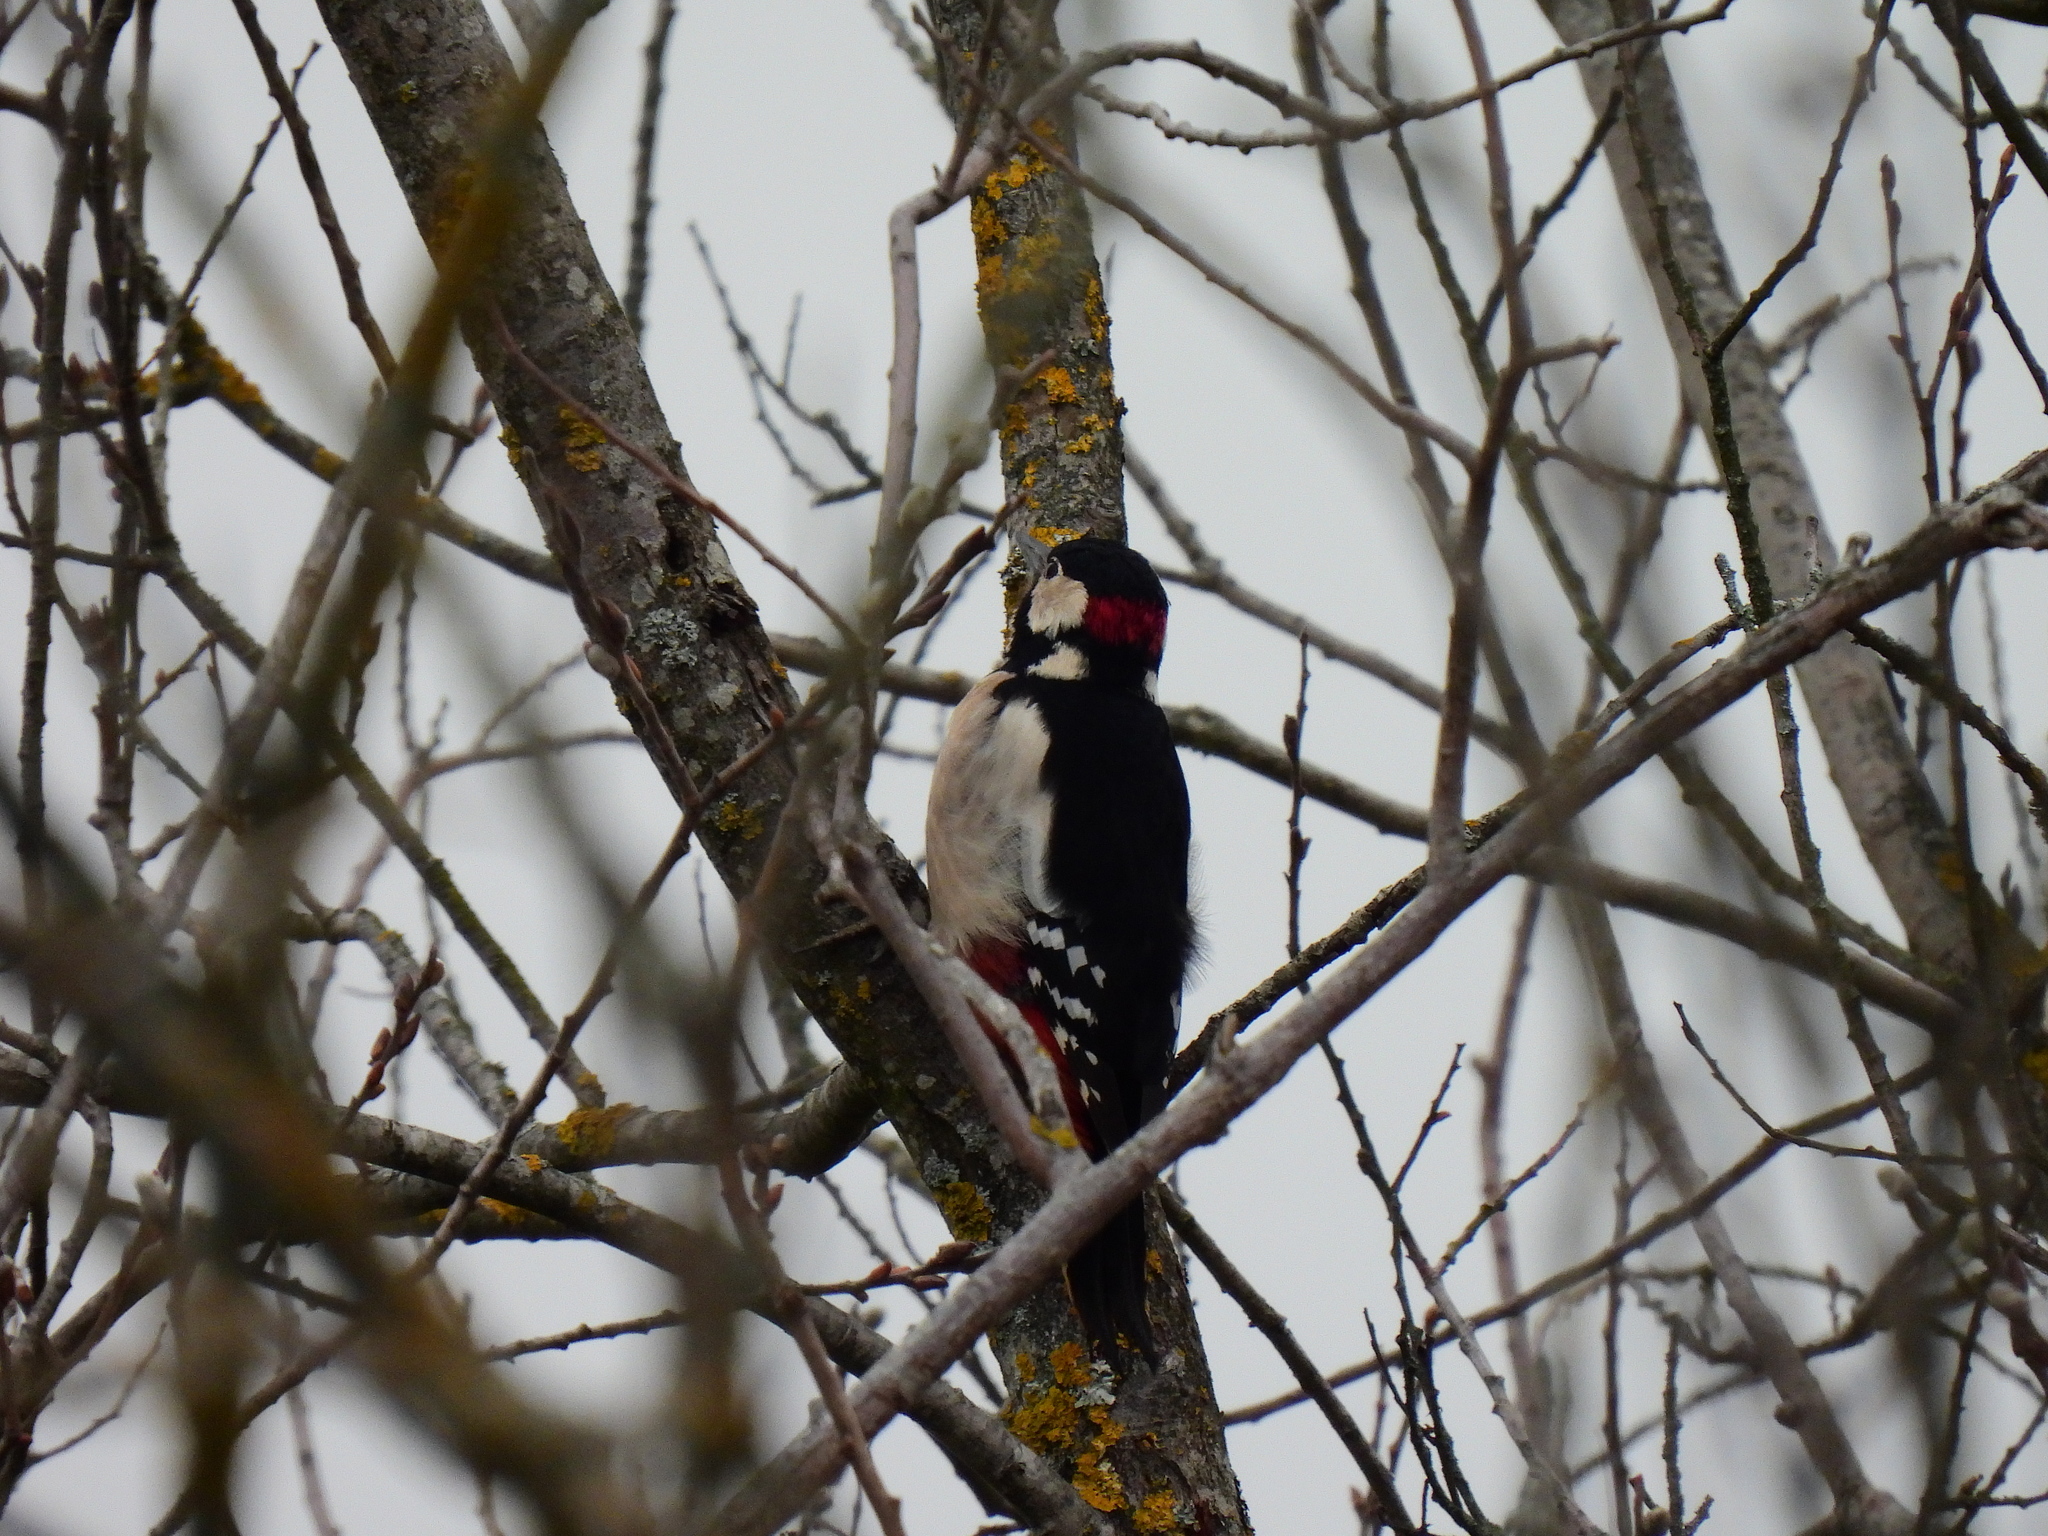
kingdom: Animalia
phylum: Chordata
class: Aves
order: Piciformes
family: Picidae
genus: Dendrocopos
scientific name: Dendrocopos major
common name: Great spotted woodpecker
